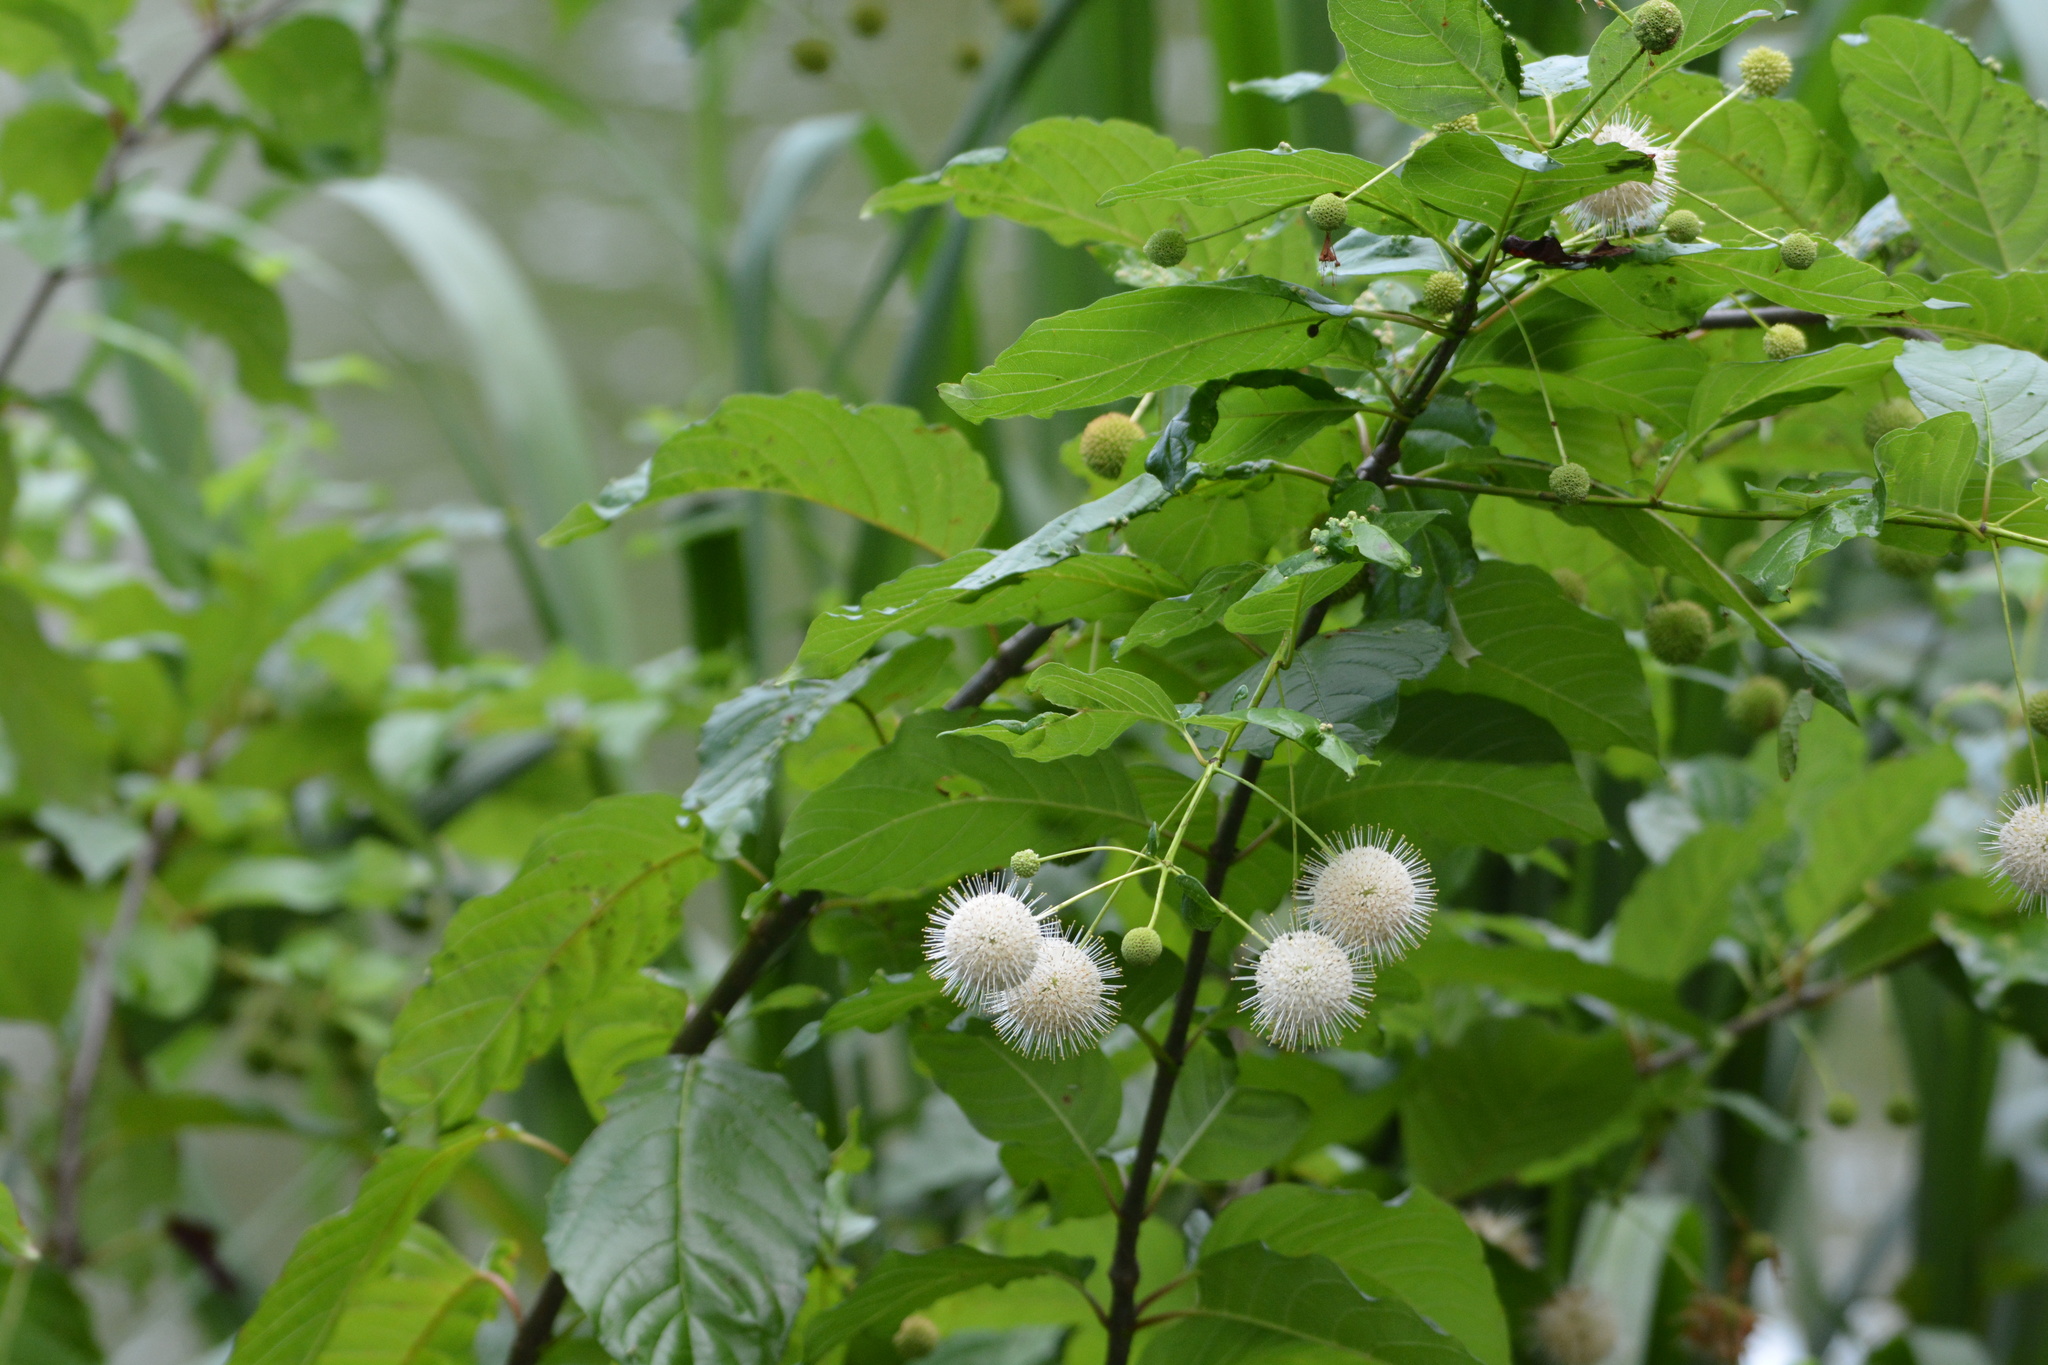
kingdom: Plantae
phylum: Tracheophyta
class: Magnoliopsida
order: Gentianales
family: Rubiaceae
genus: Cephalanthus
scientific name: Cephalanthus occidentalis
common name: Button-willow
